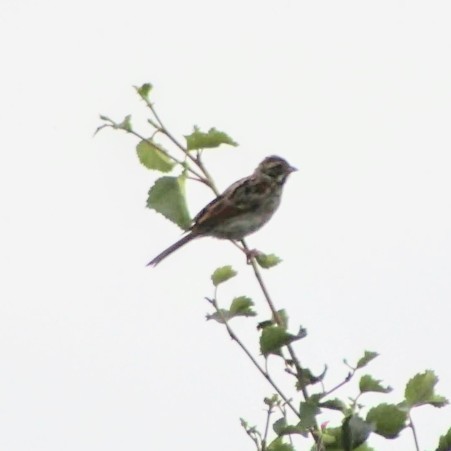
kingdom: Animalia
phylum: Chordata
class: Aves
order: Passeriformes
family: Emberizidae
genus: Emberiza
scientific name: Emberiza schoeniclus
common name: Reed bunting
